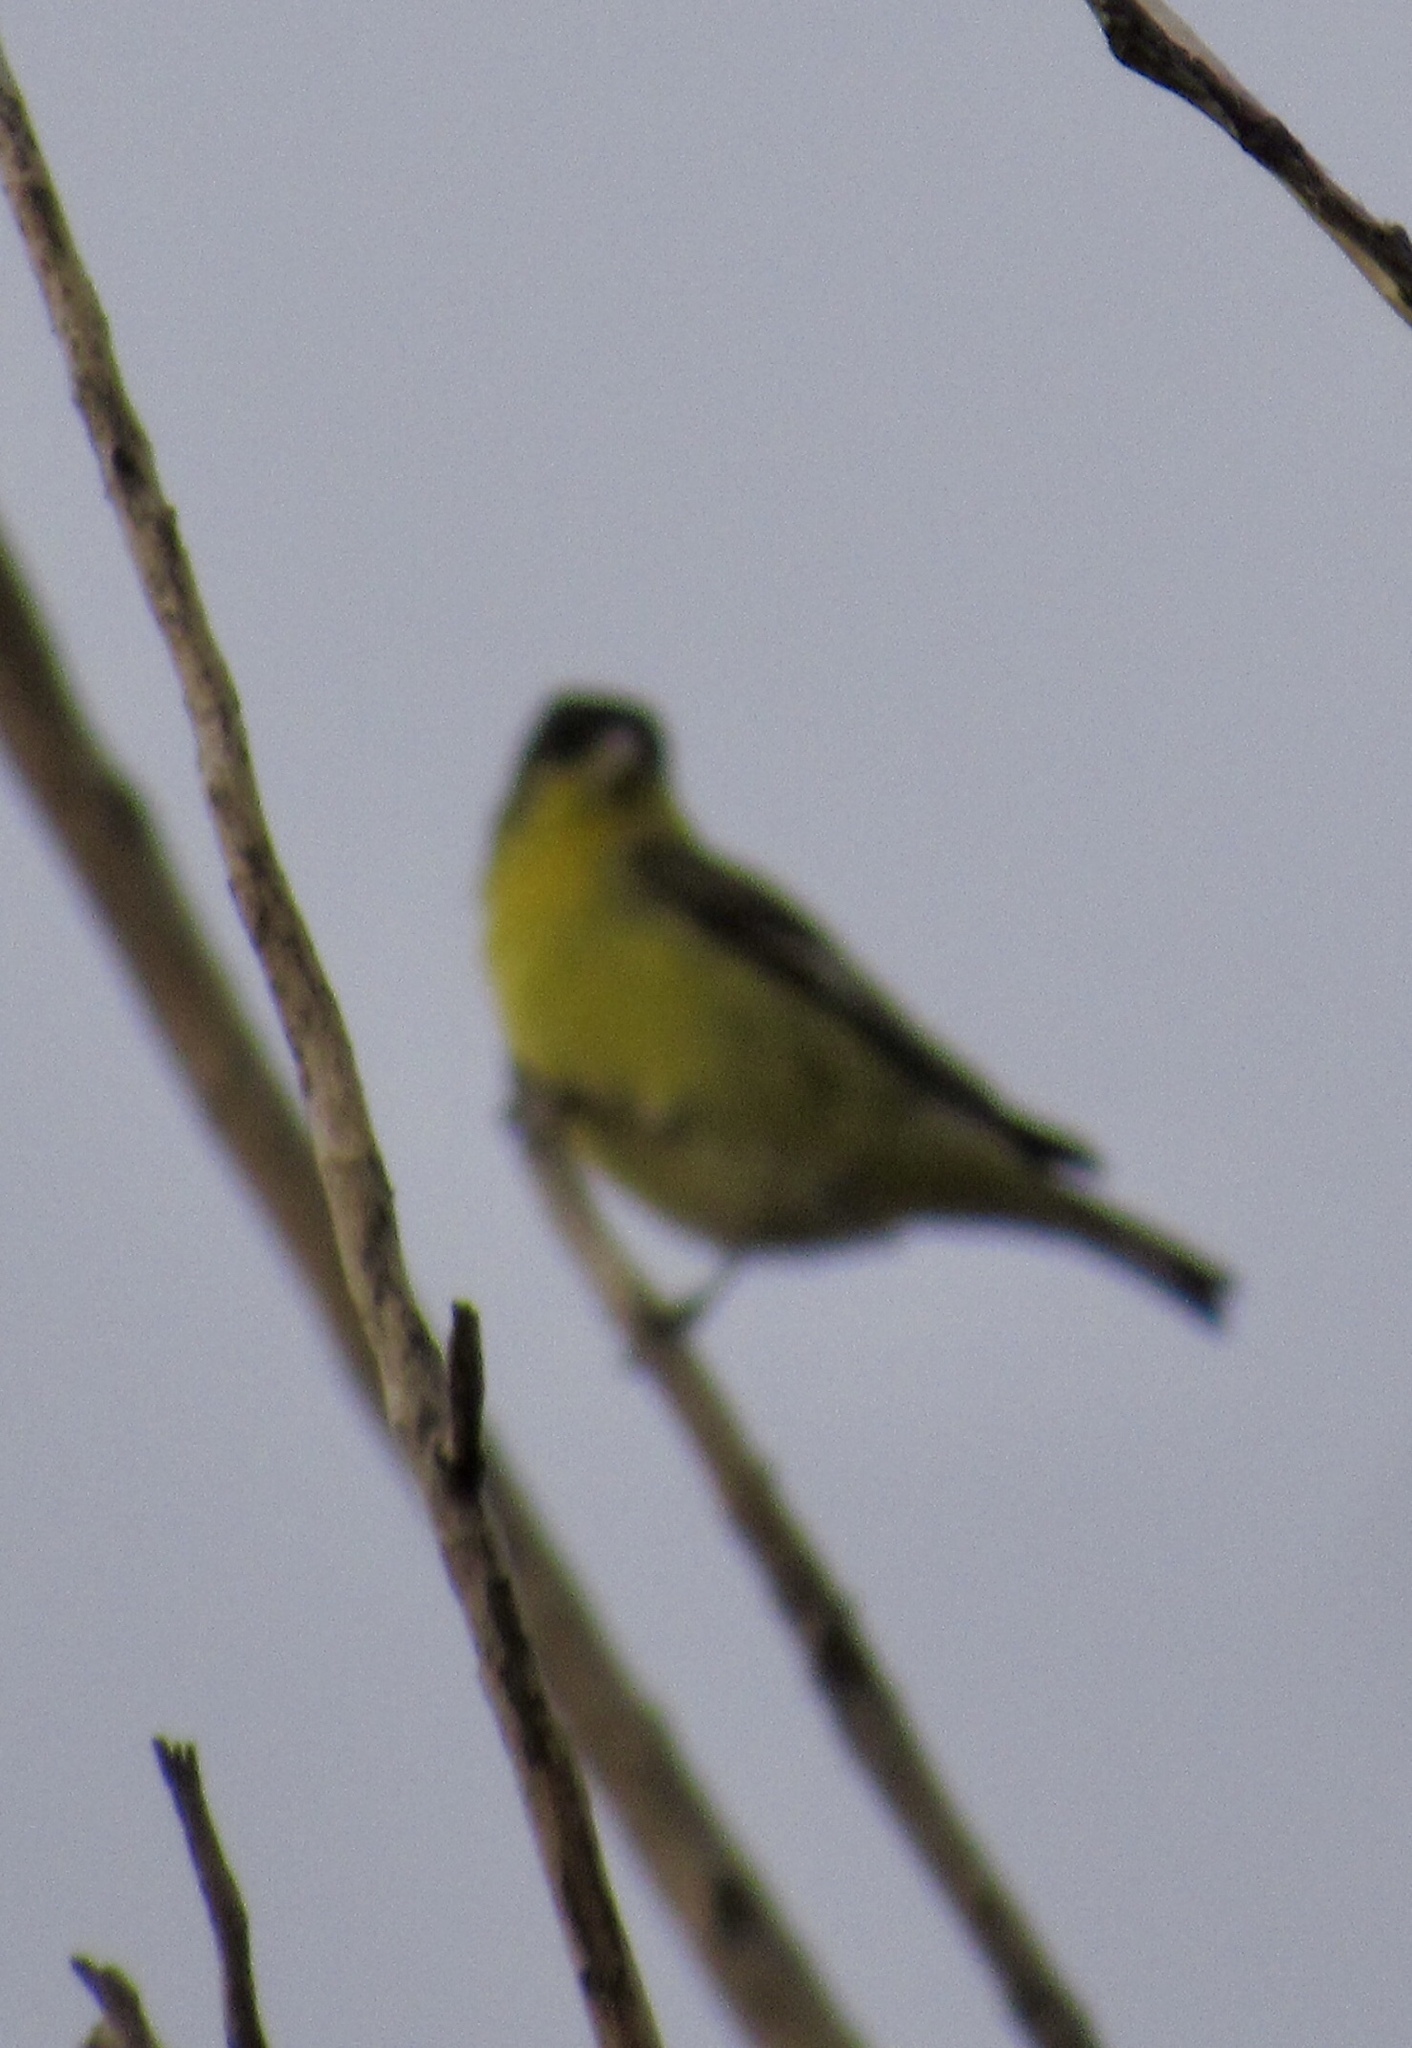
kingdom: Animalia
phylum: Chordata
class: Aves
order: Passeriformes
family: Fringillidae
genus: Spinus
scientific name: Spinus psaltria
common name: Lesser goldfinch
